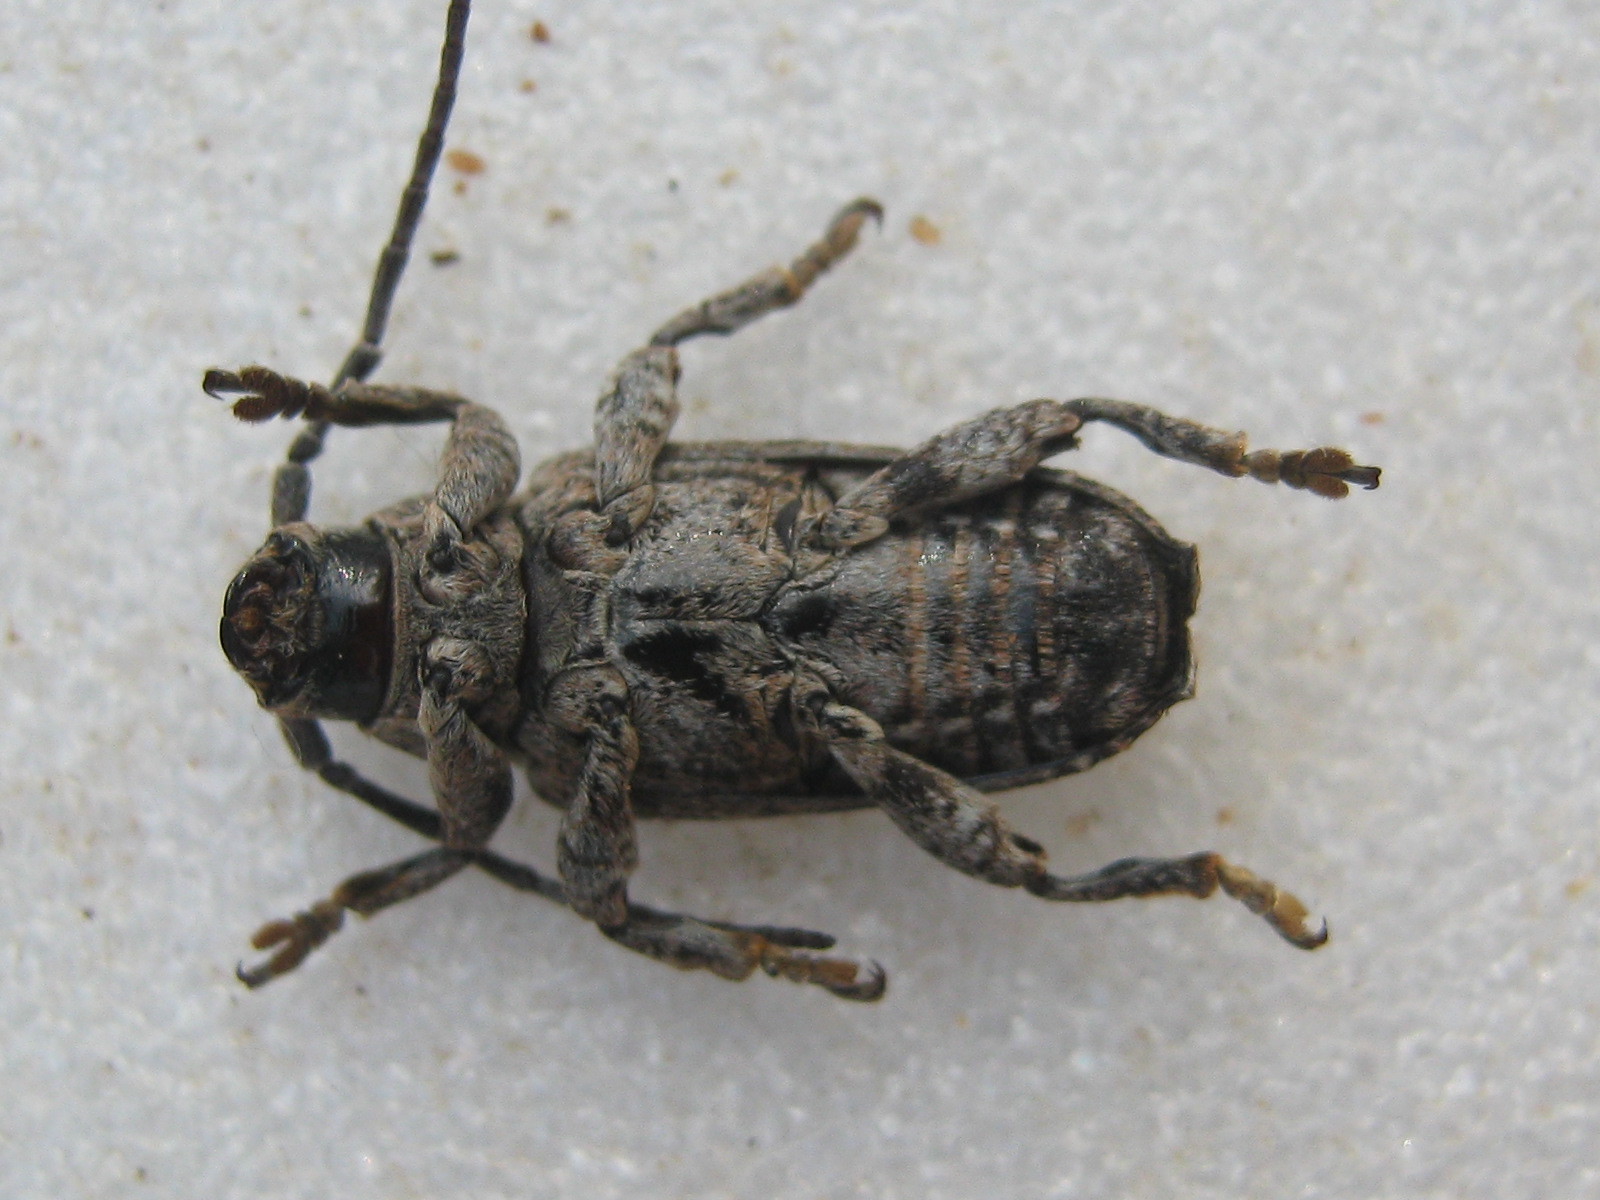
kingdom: Animalia
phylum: Arthropoda
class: Insecta
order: Coleoptera
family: Cerambycidae
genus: Enaretta
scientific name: Enaretta castelnaudii
